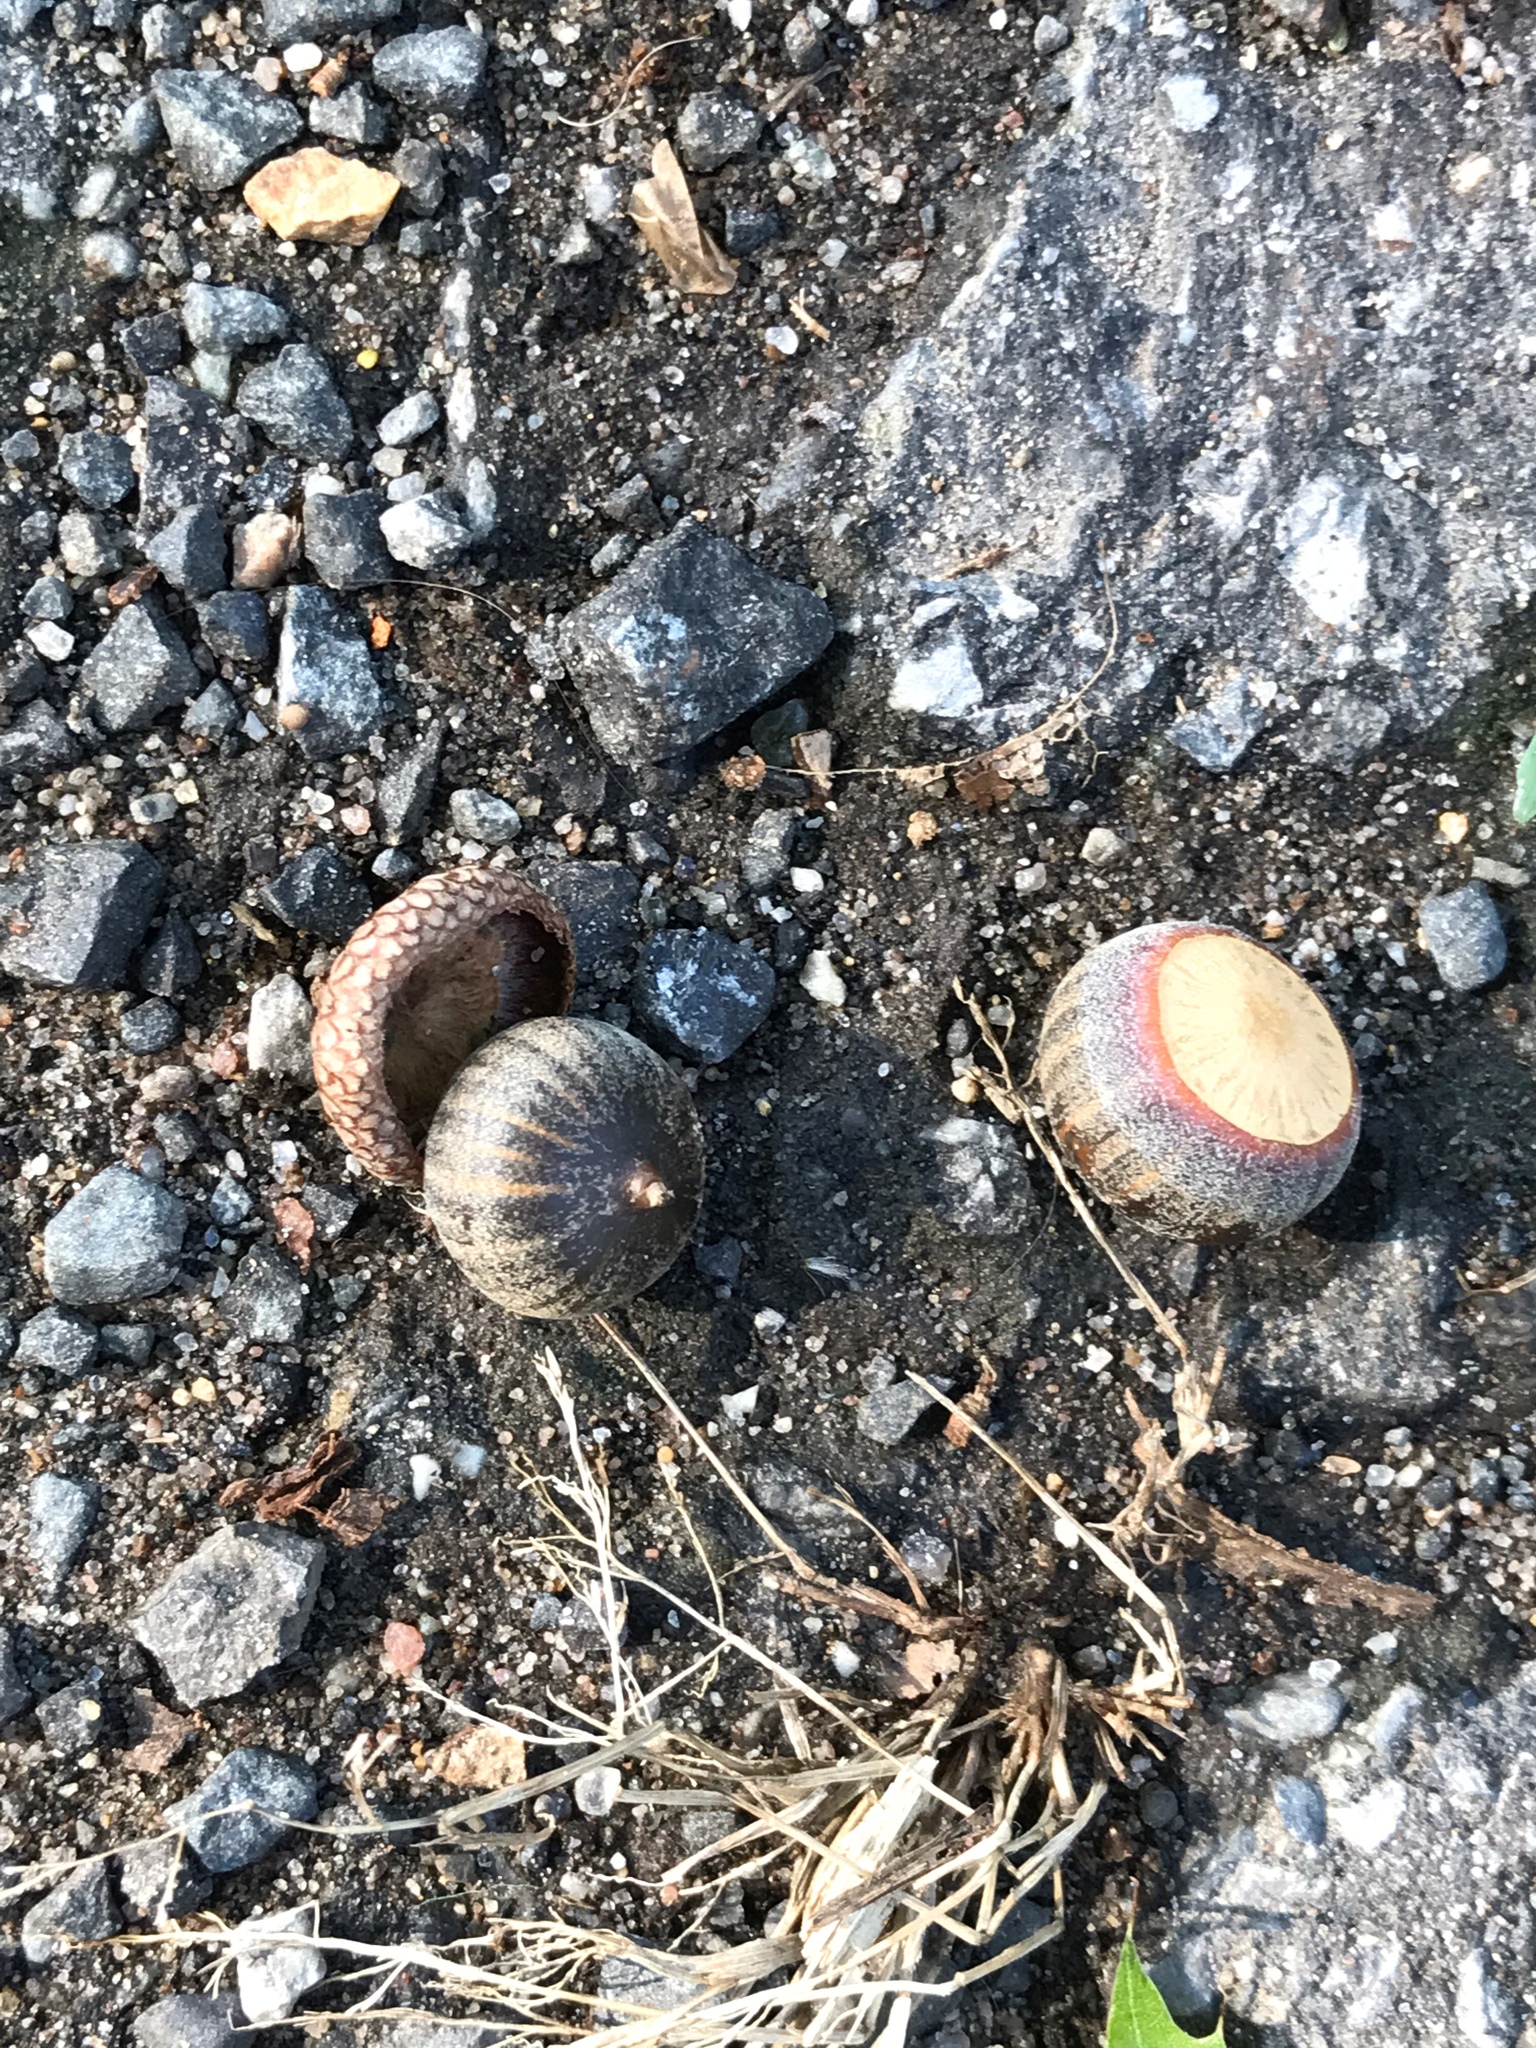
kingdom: Plantae
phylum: Tracheophyta
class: Magnoliopsida
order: Fagales
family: Fagaceae
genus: Quercus
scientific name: Quercus palustris
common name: Pin oak
